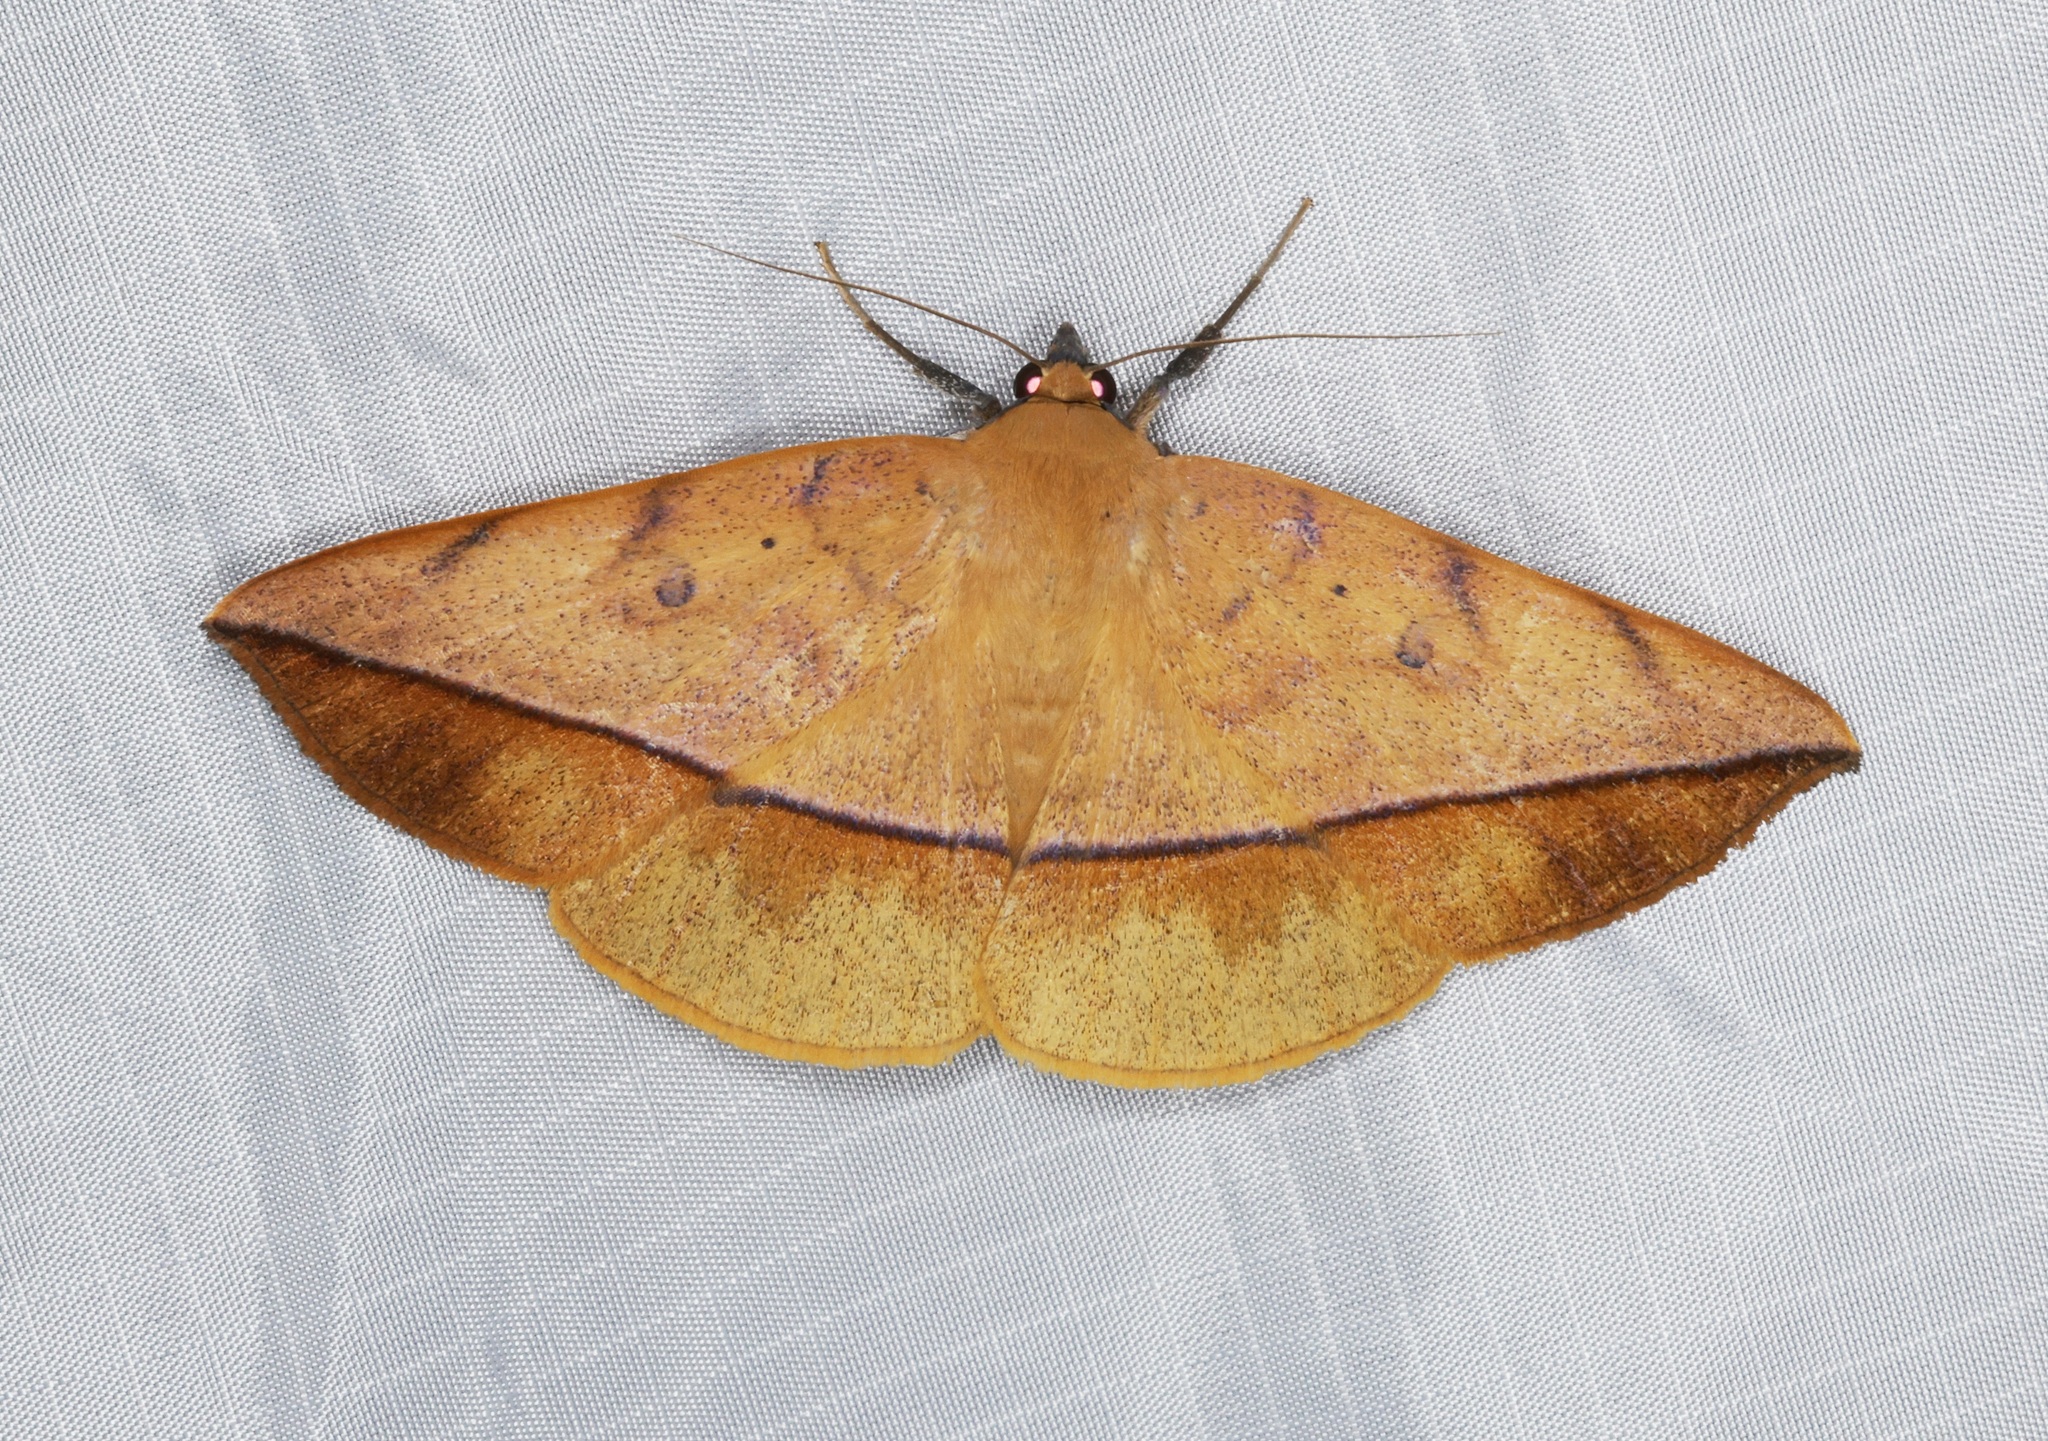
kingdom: Animalia
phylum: Arthropoda
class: Insecta
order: Lepidoptera
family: Erebidae
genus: Hamodes
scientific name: Hamodes pendleburyi
